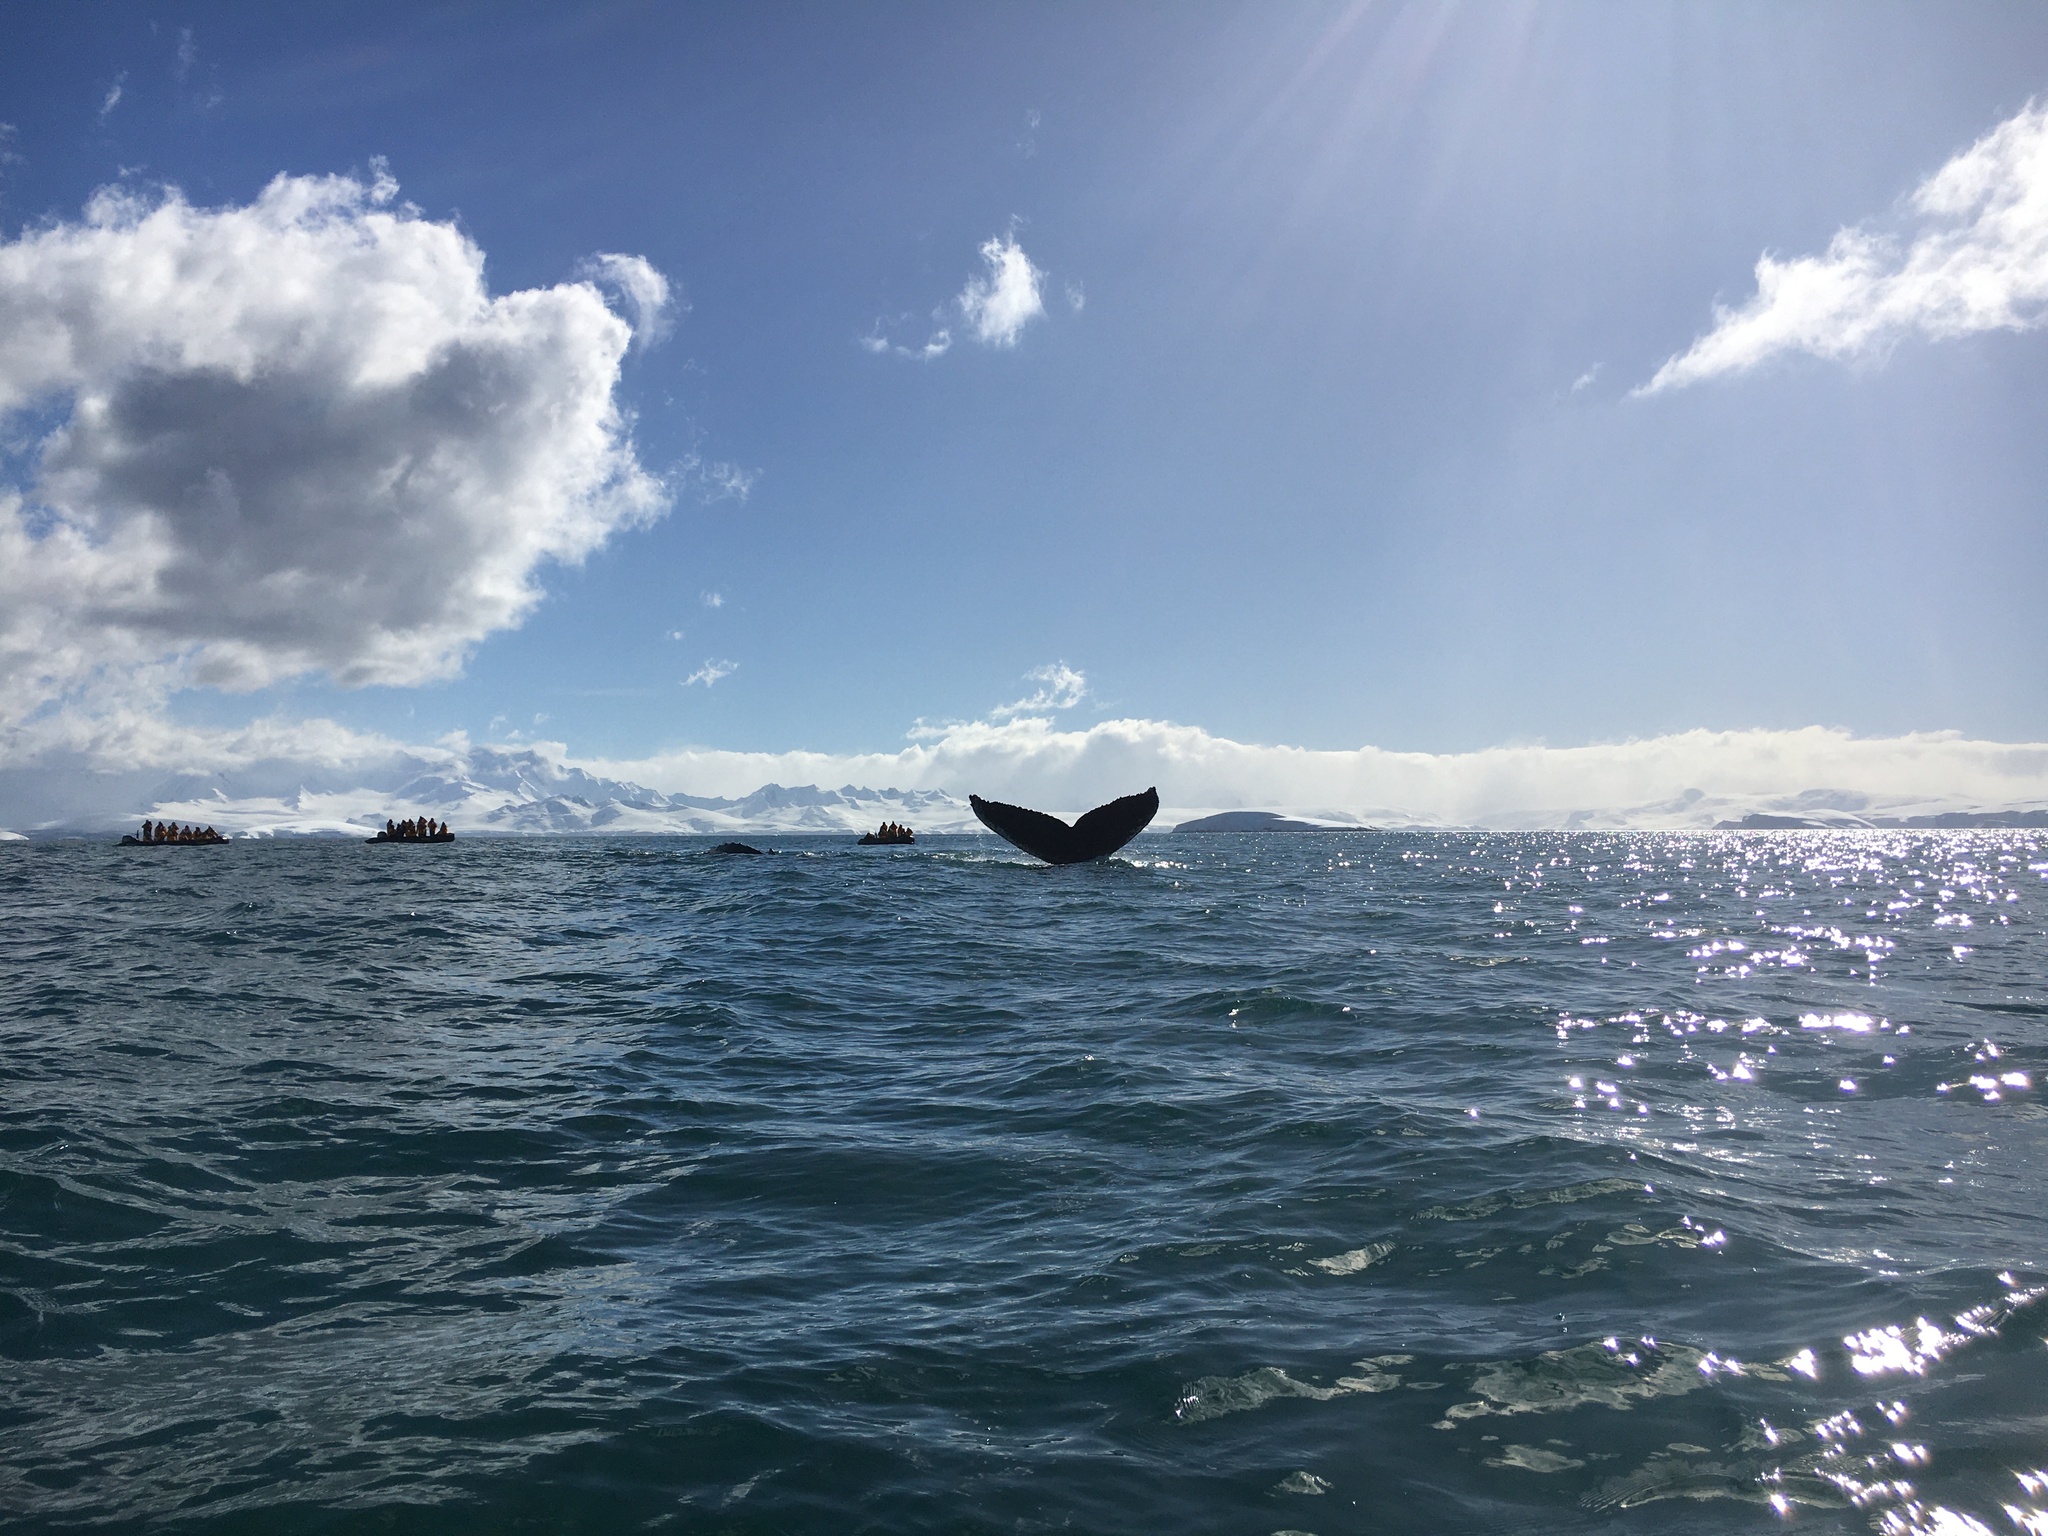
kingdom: Animalia
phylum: Chordata
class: Mammalia
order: Cetacea
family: Balaenopteridae
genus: Megaptera
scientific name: Megaptera novaeangliae
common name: Humpback whale
